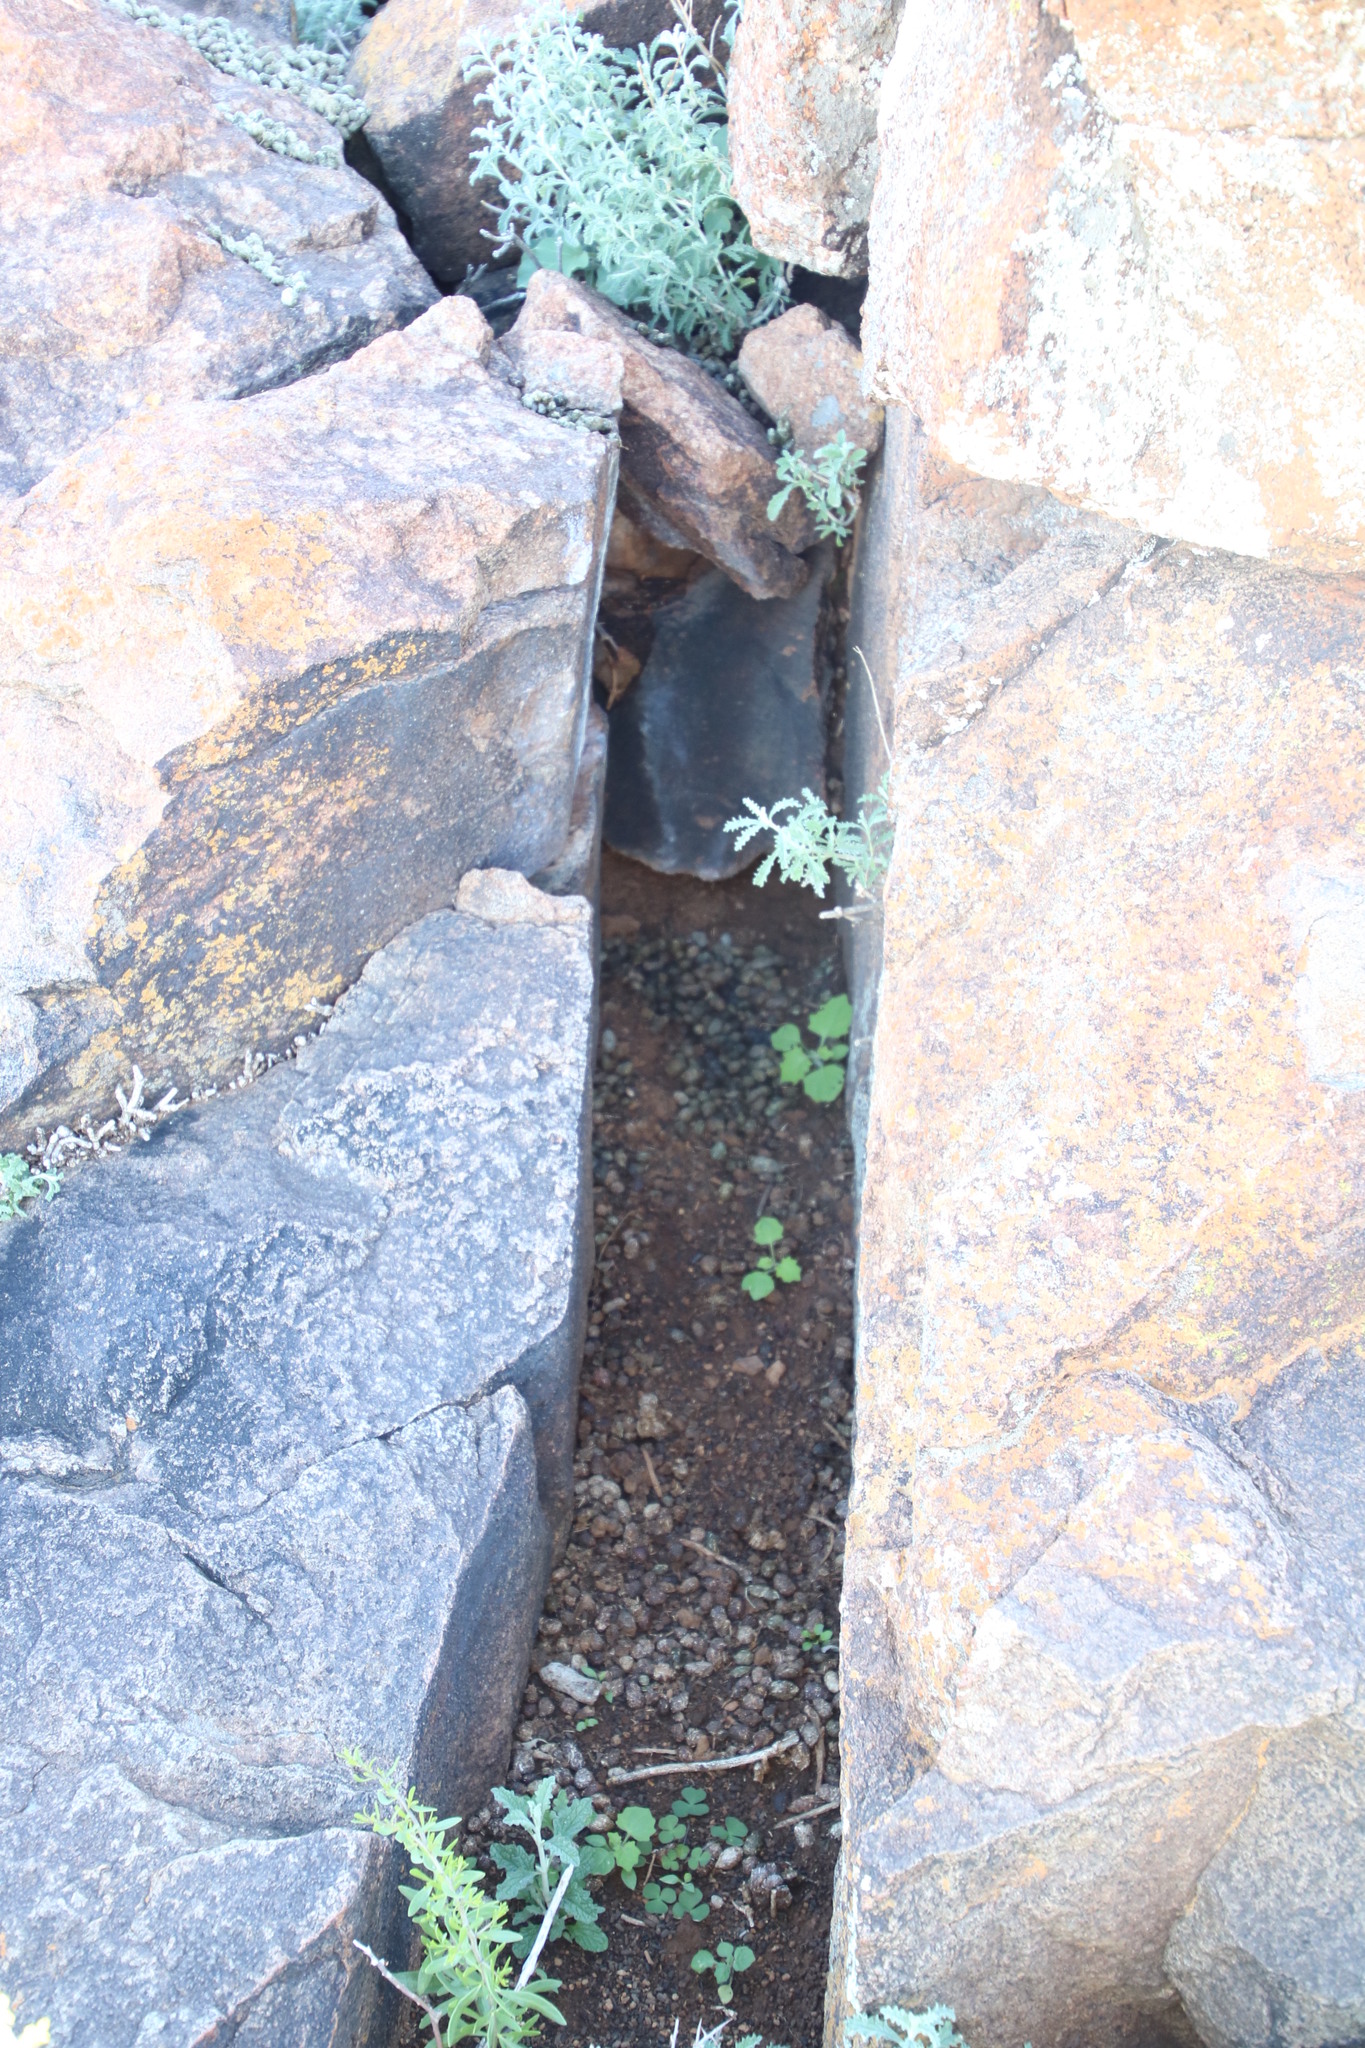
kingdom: Animalia
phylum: Chordata
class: Mammalia
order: Hyracoidea
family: Procaviidae
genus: Procavia
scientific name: Procavia capensis
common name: Rock hyrax
